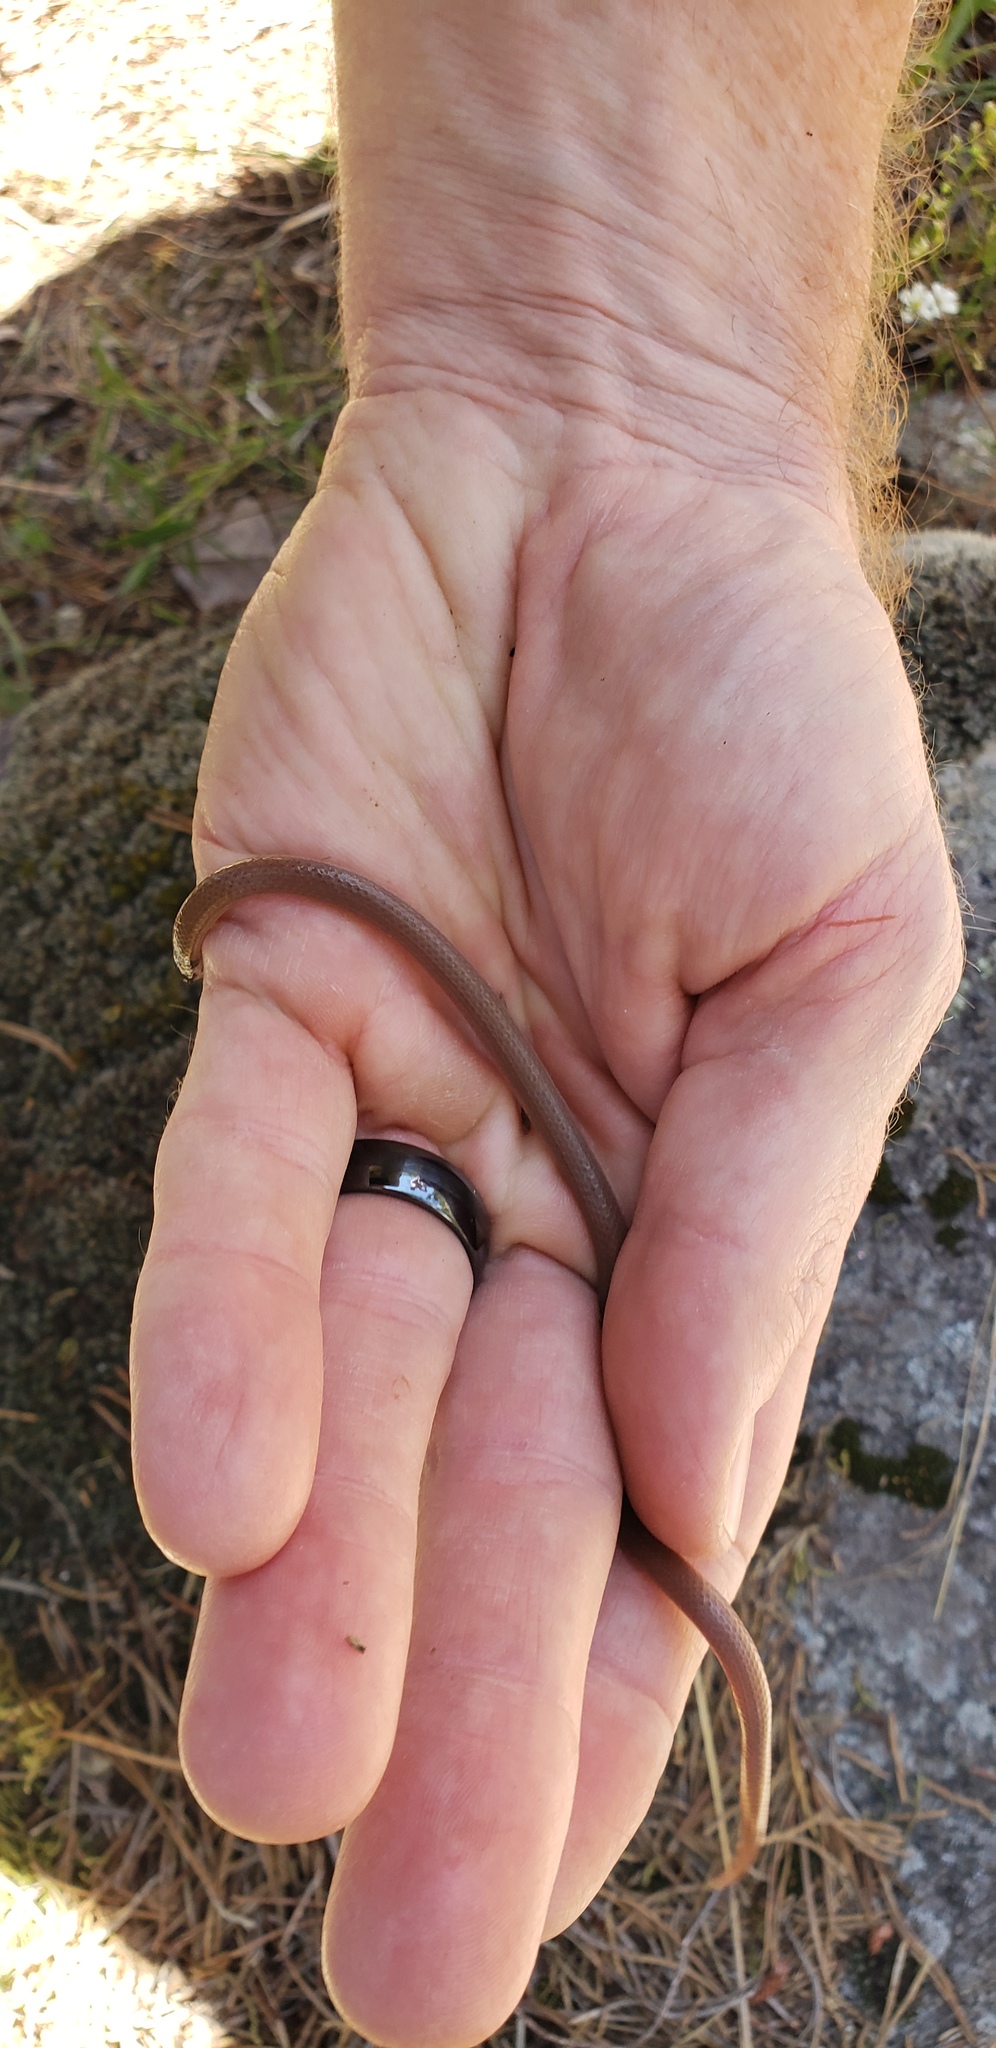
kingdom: Animalia
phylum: Chordata
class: Squamata
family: Colubridae
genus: Tantilla
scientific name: Tantilla coronata
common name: Southeastern crowned snake
